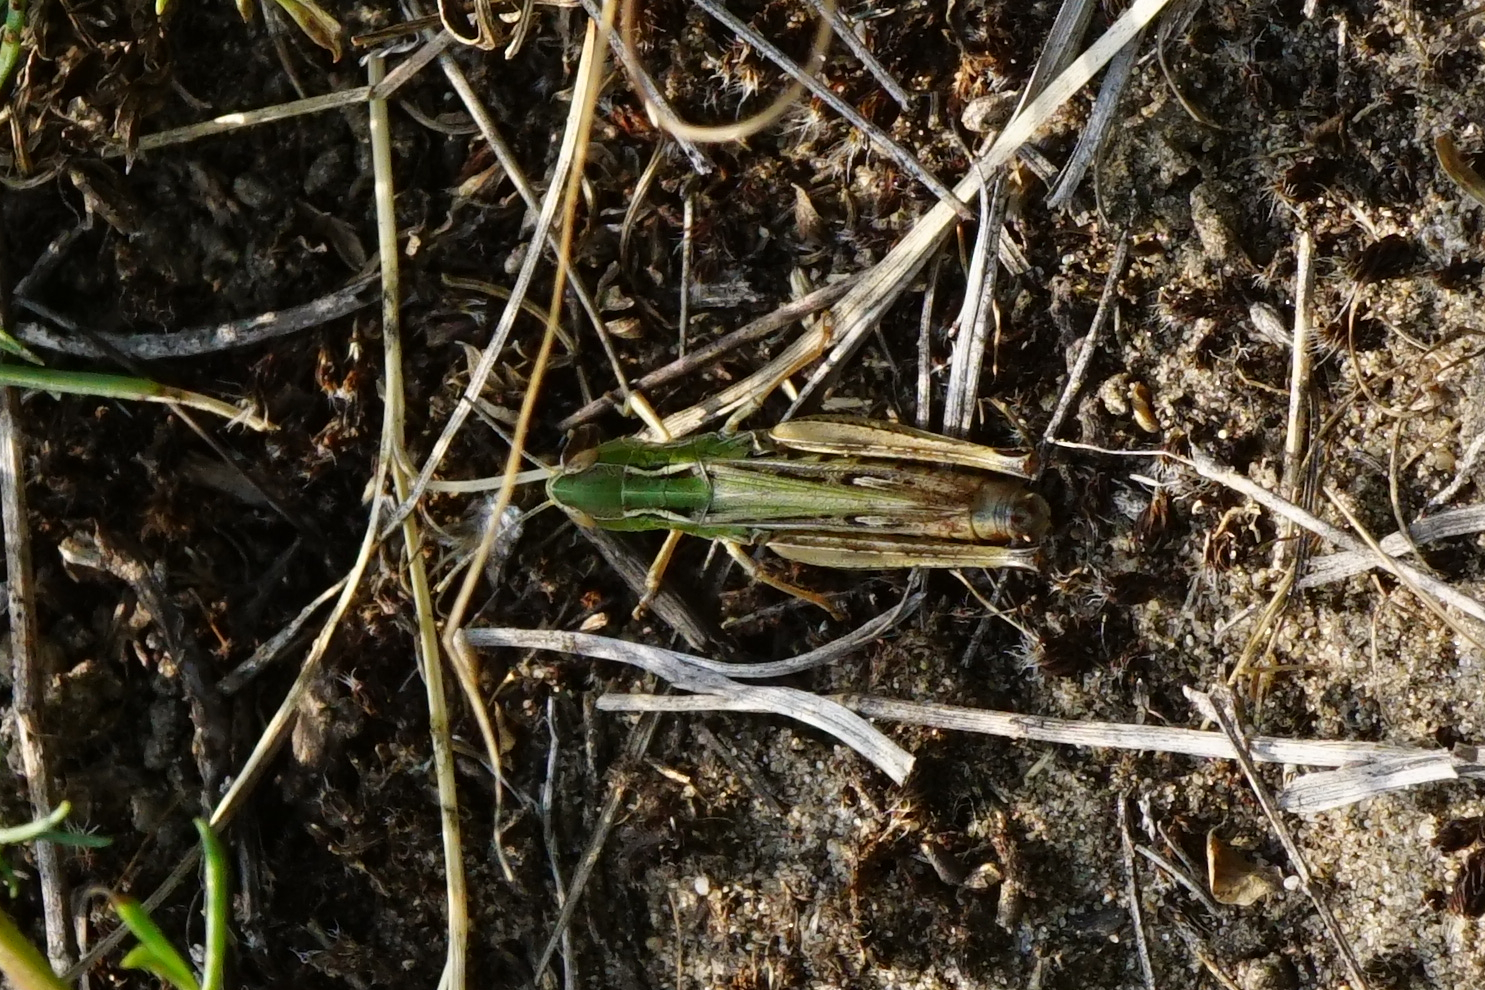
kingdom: Animalia
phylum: Arthropoda
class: Insecta
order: Orthoptera
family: Acrididae
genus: Stenobothrus
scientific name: Stenobothrus fischeri
